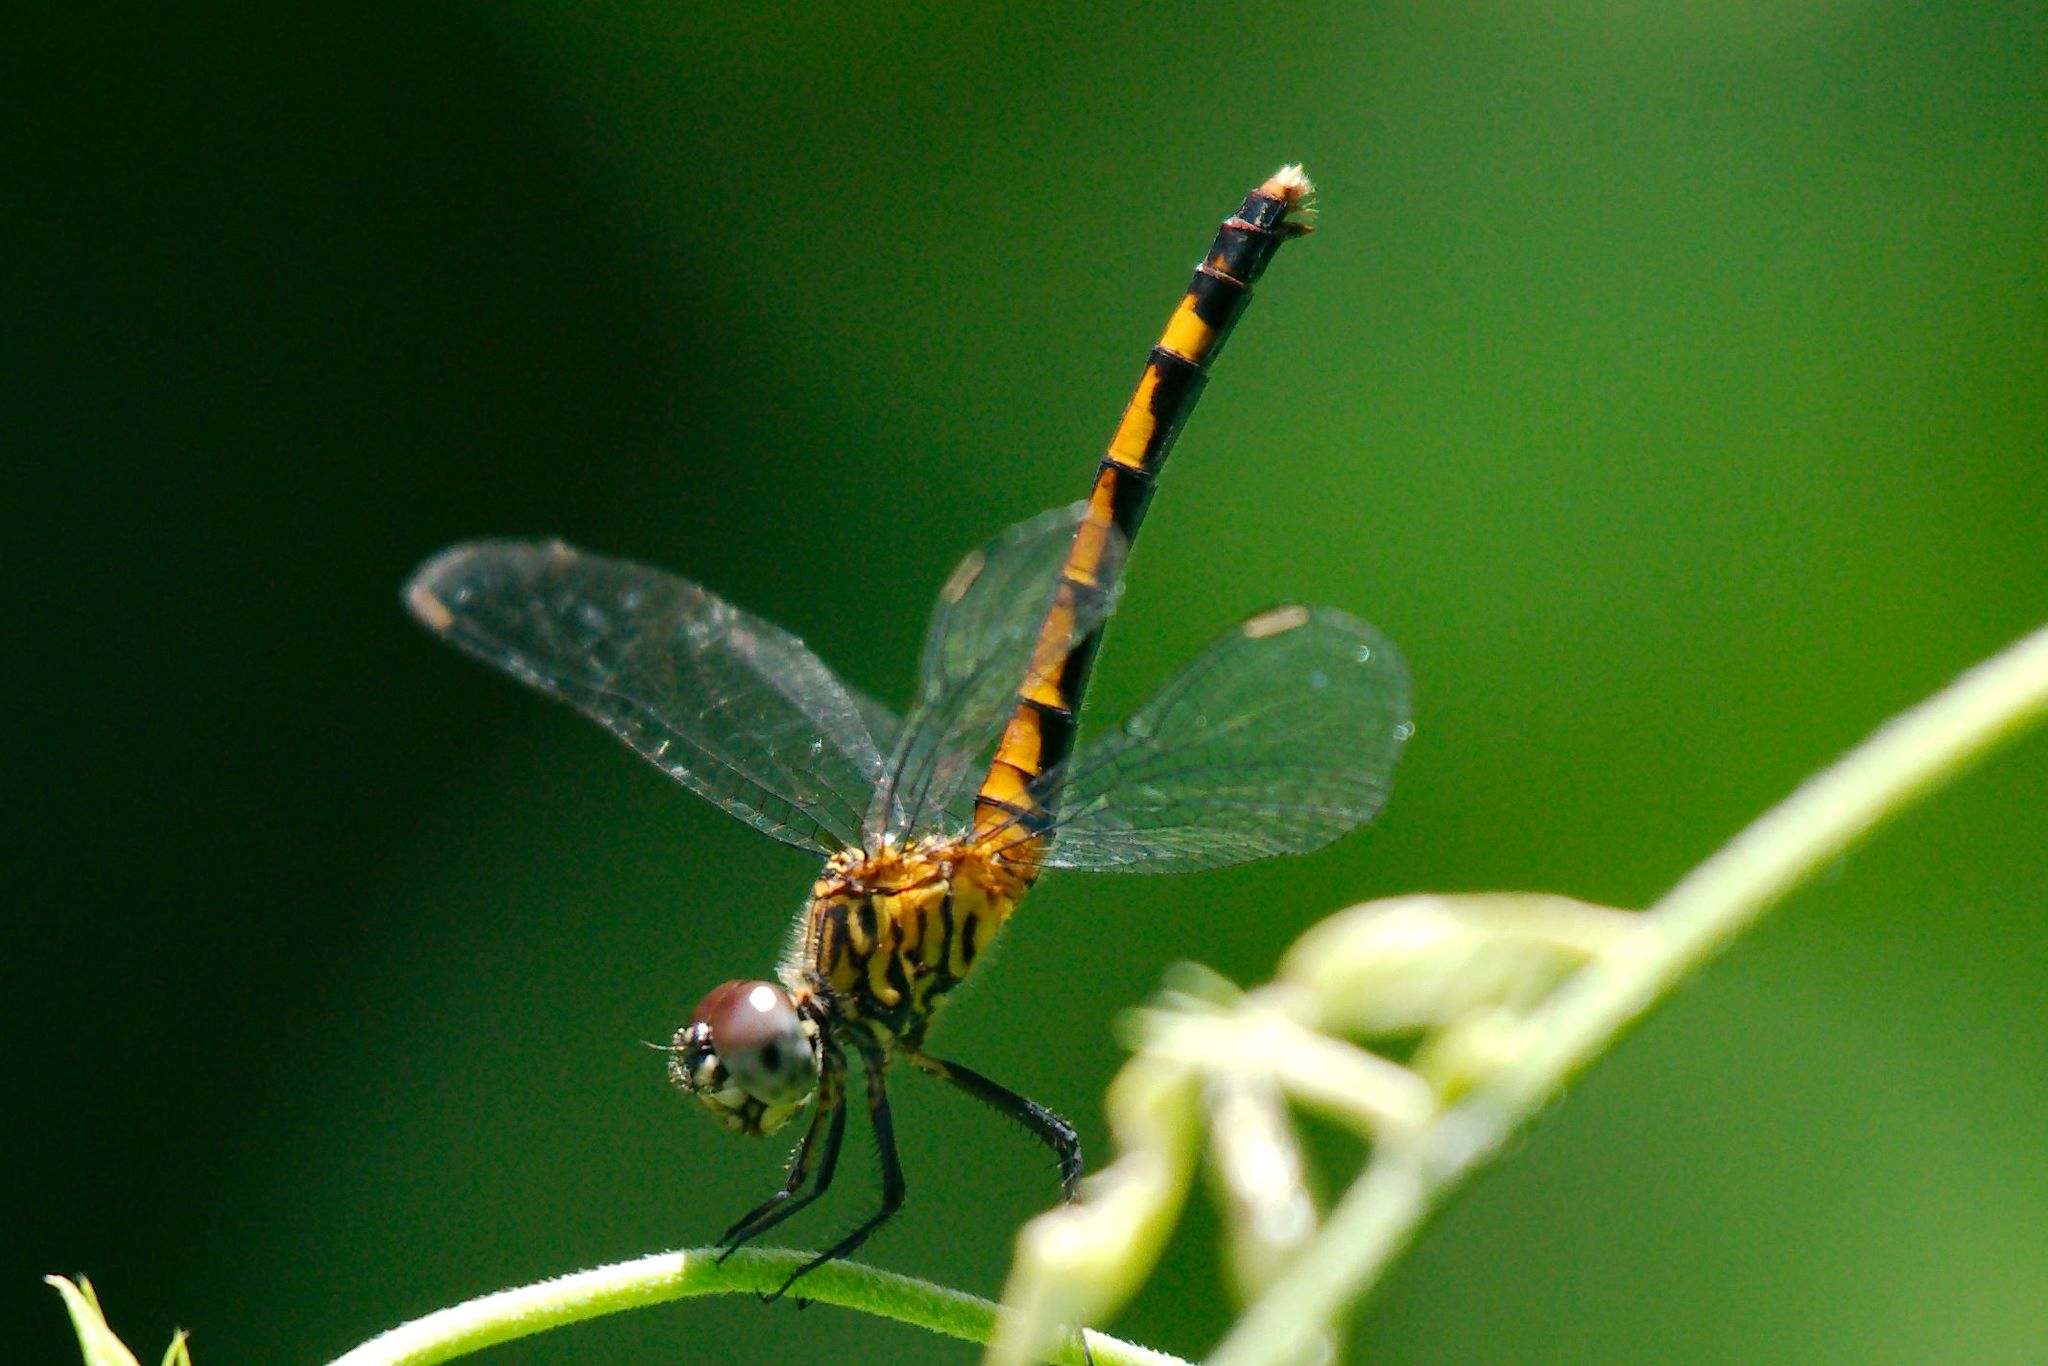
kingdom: Animalia
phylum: Arthropoda
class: Insecta
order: Odonata
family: Libellulidae
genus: Erythrodiplax
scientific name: Erythrodiplax berenice
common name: Seaside dragonlet
